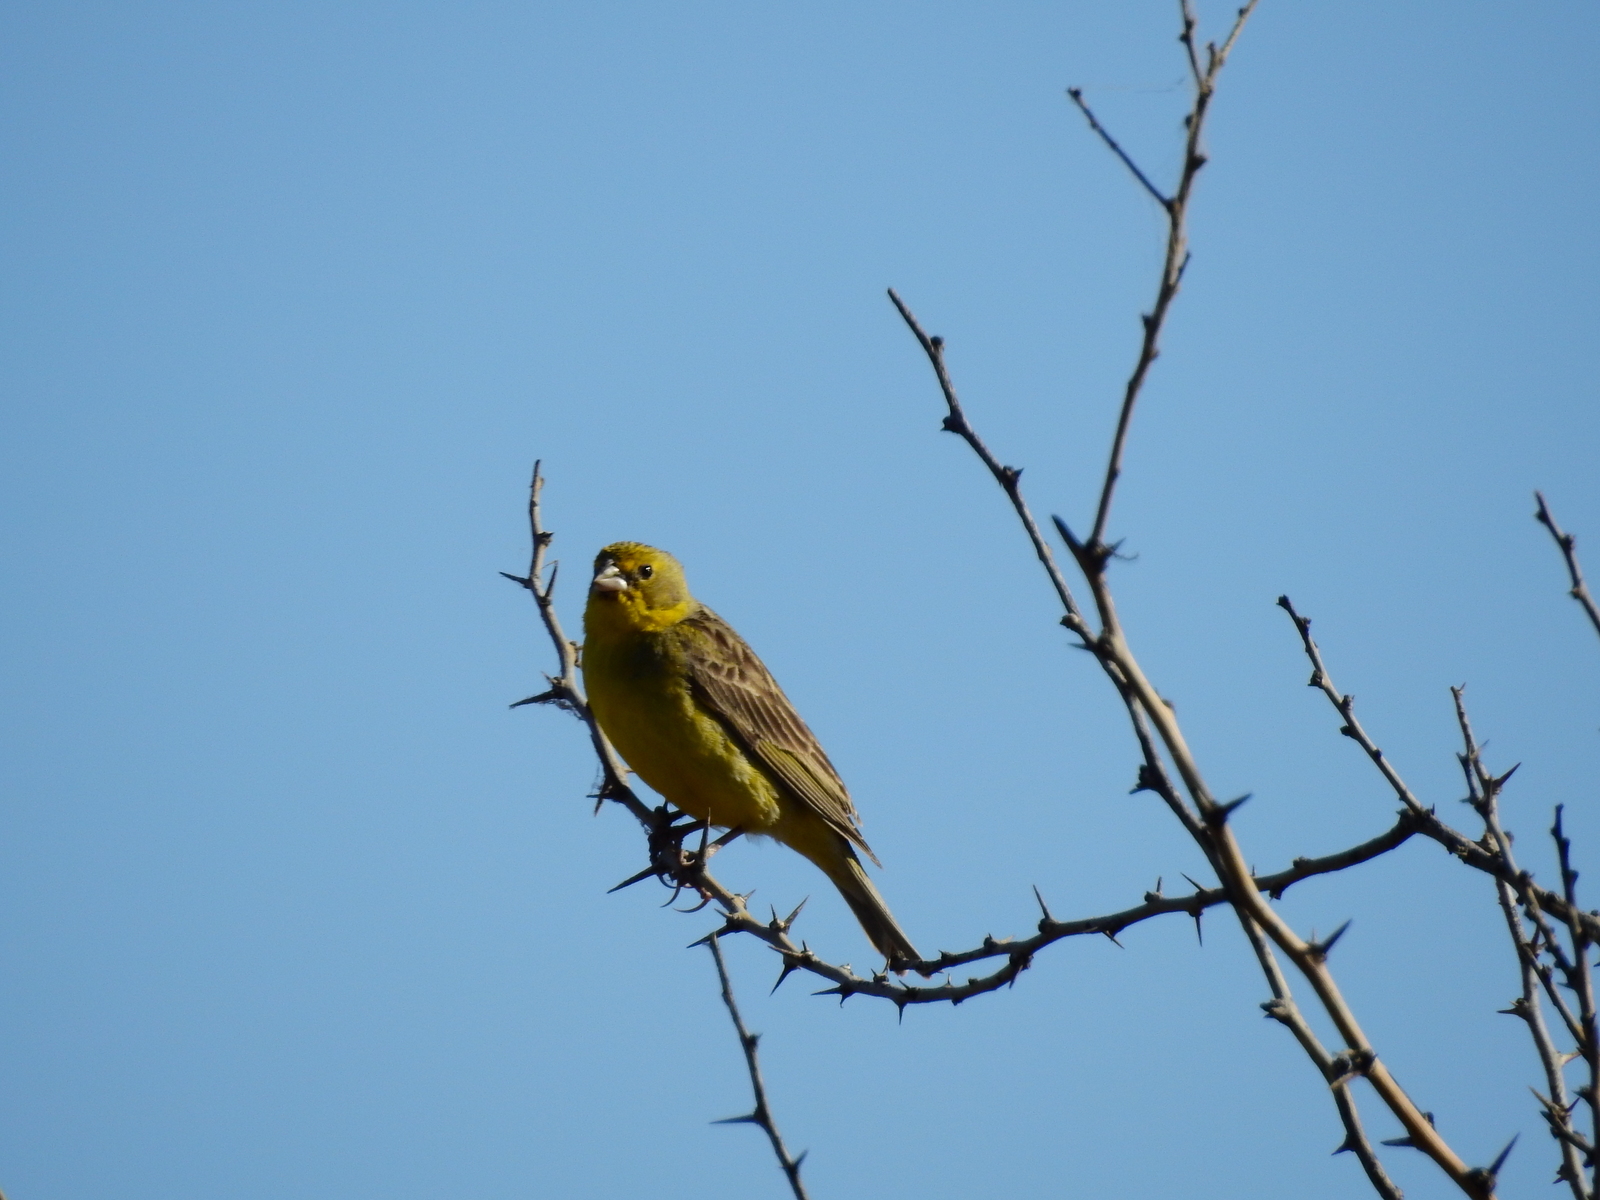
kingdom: Animalia
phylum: Chordata
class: Aves
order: Passeriformes
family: Thraupidae
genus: Sicalis
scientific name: Sicalis luteola
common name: Grassland yellow-finch
